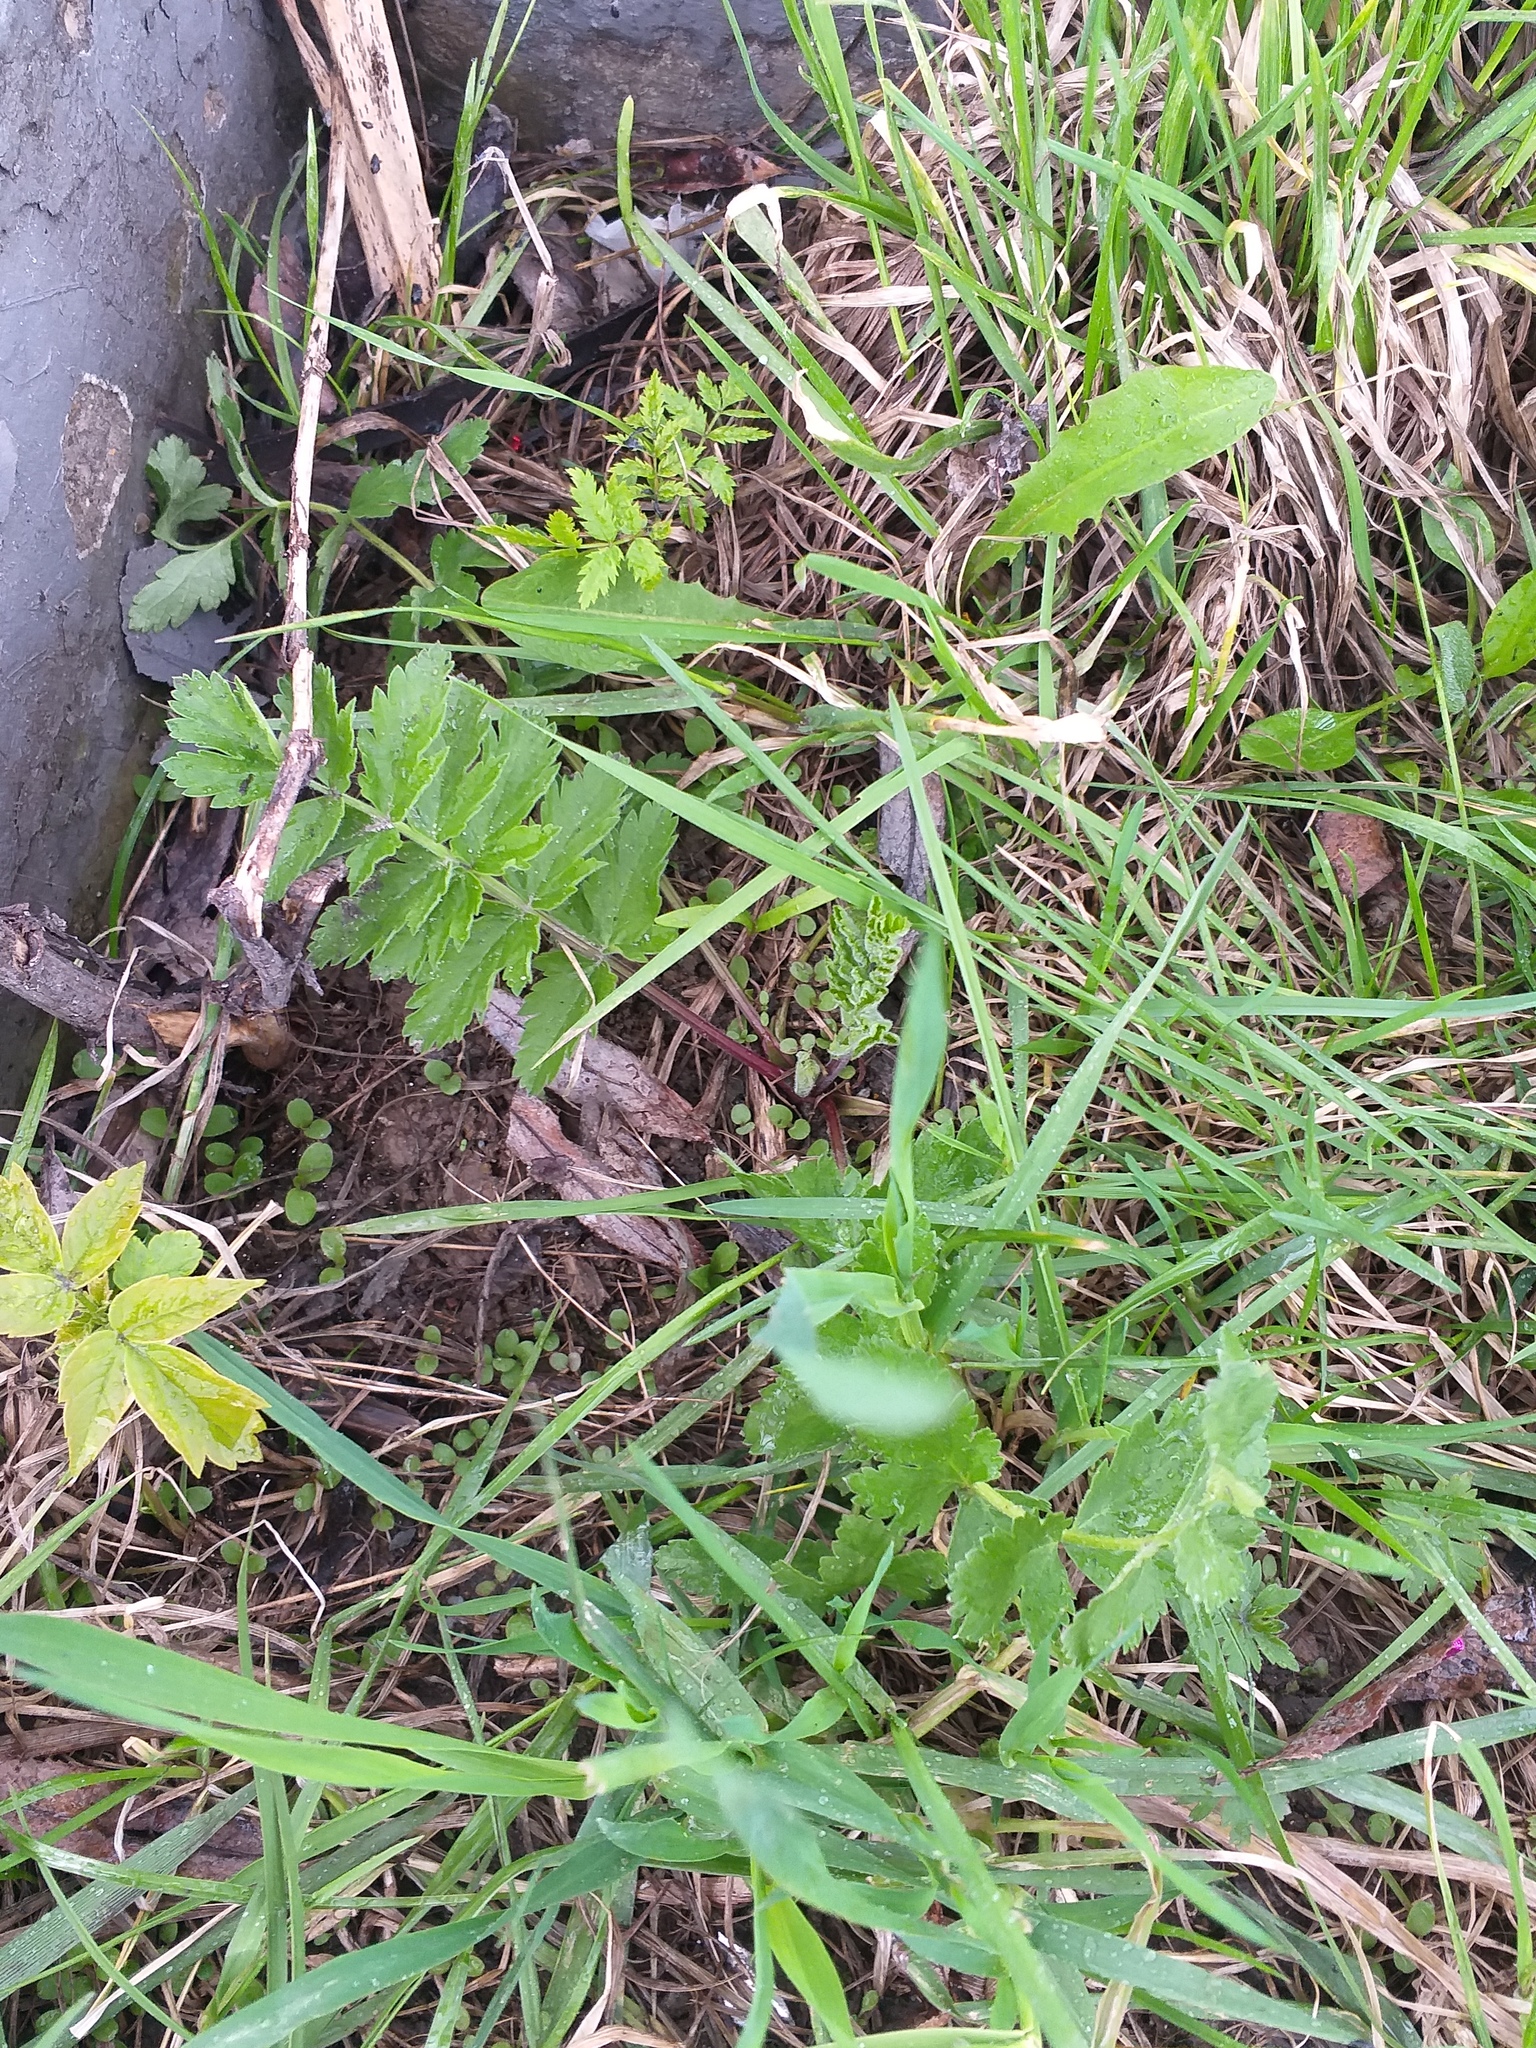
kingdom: Plantae
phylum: Tracheophyta
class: Magnoliopsida
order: Apiales
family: Apiaceae
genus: Pastinaca
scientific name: Pastinaca sativa
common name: Wild parsnip
